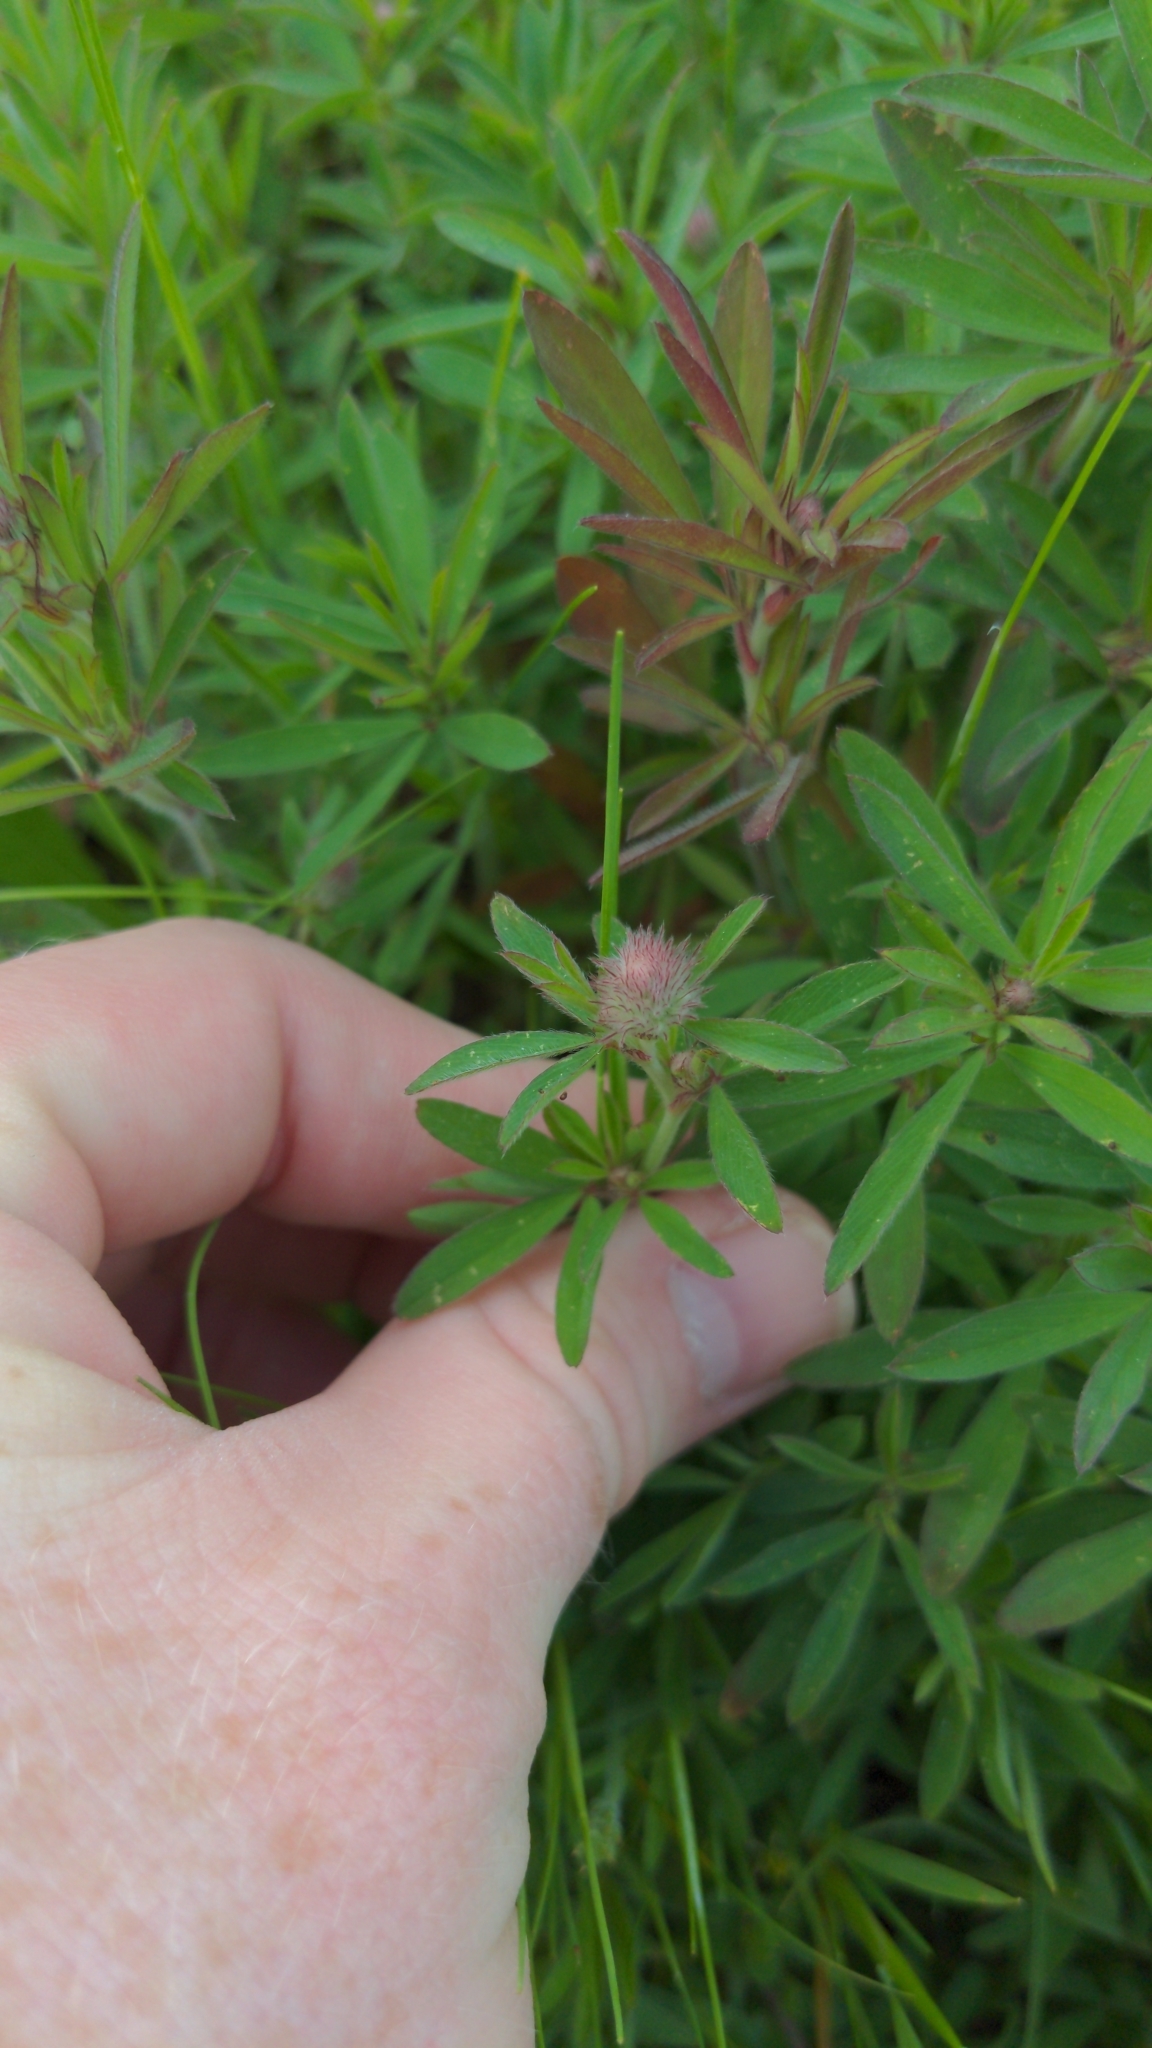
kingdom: Plantae
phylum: Tracheophyta
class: Magnoliopsida
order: Fabales
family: Fabaceae
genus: Trifolium
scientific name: Trifolium arvense
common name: Hare's-foot clover
